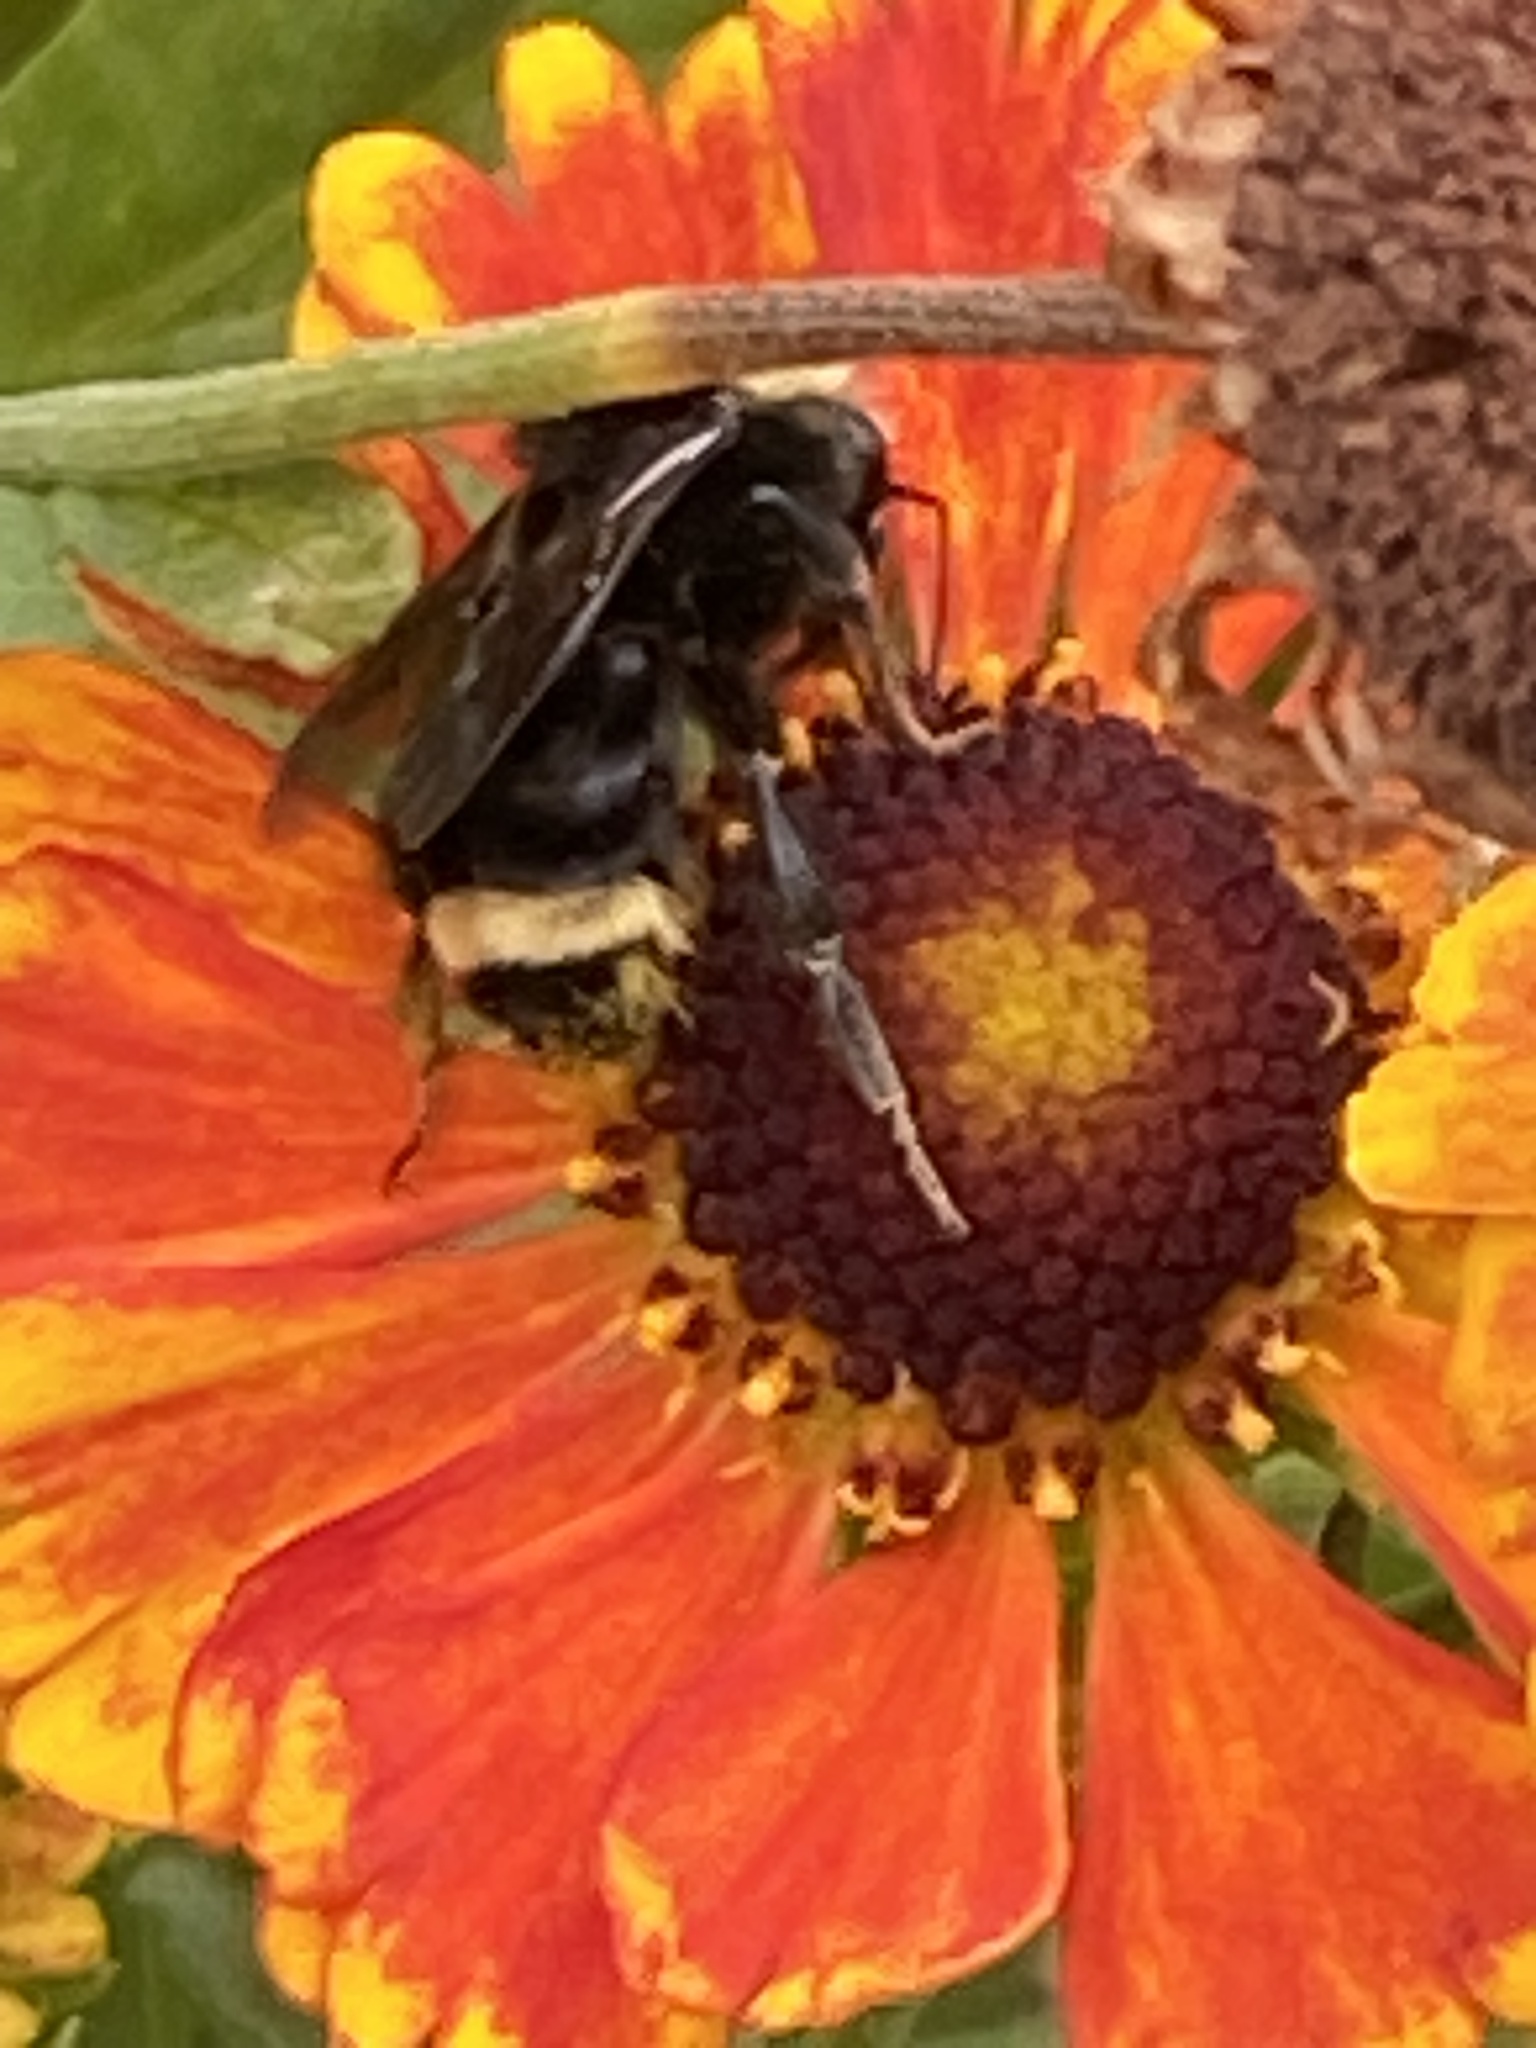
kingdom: Animalia
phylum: Arthropoda
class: Insecta
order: Hymenoptera
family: Apidae
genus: Bombus
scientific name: Bombus vosnesenskii
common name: Vosnesensky bumble bee
